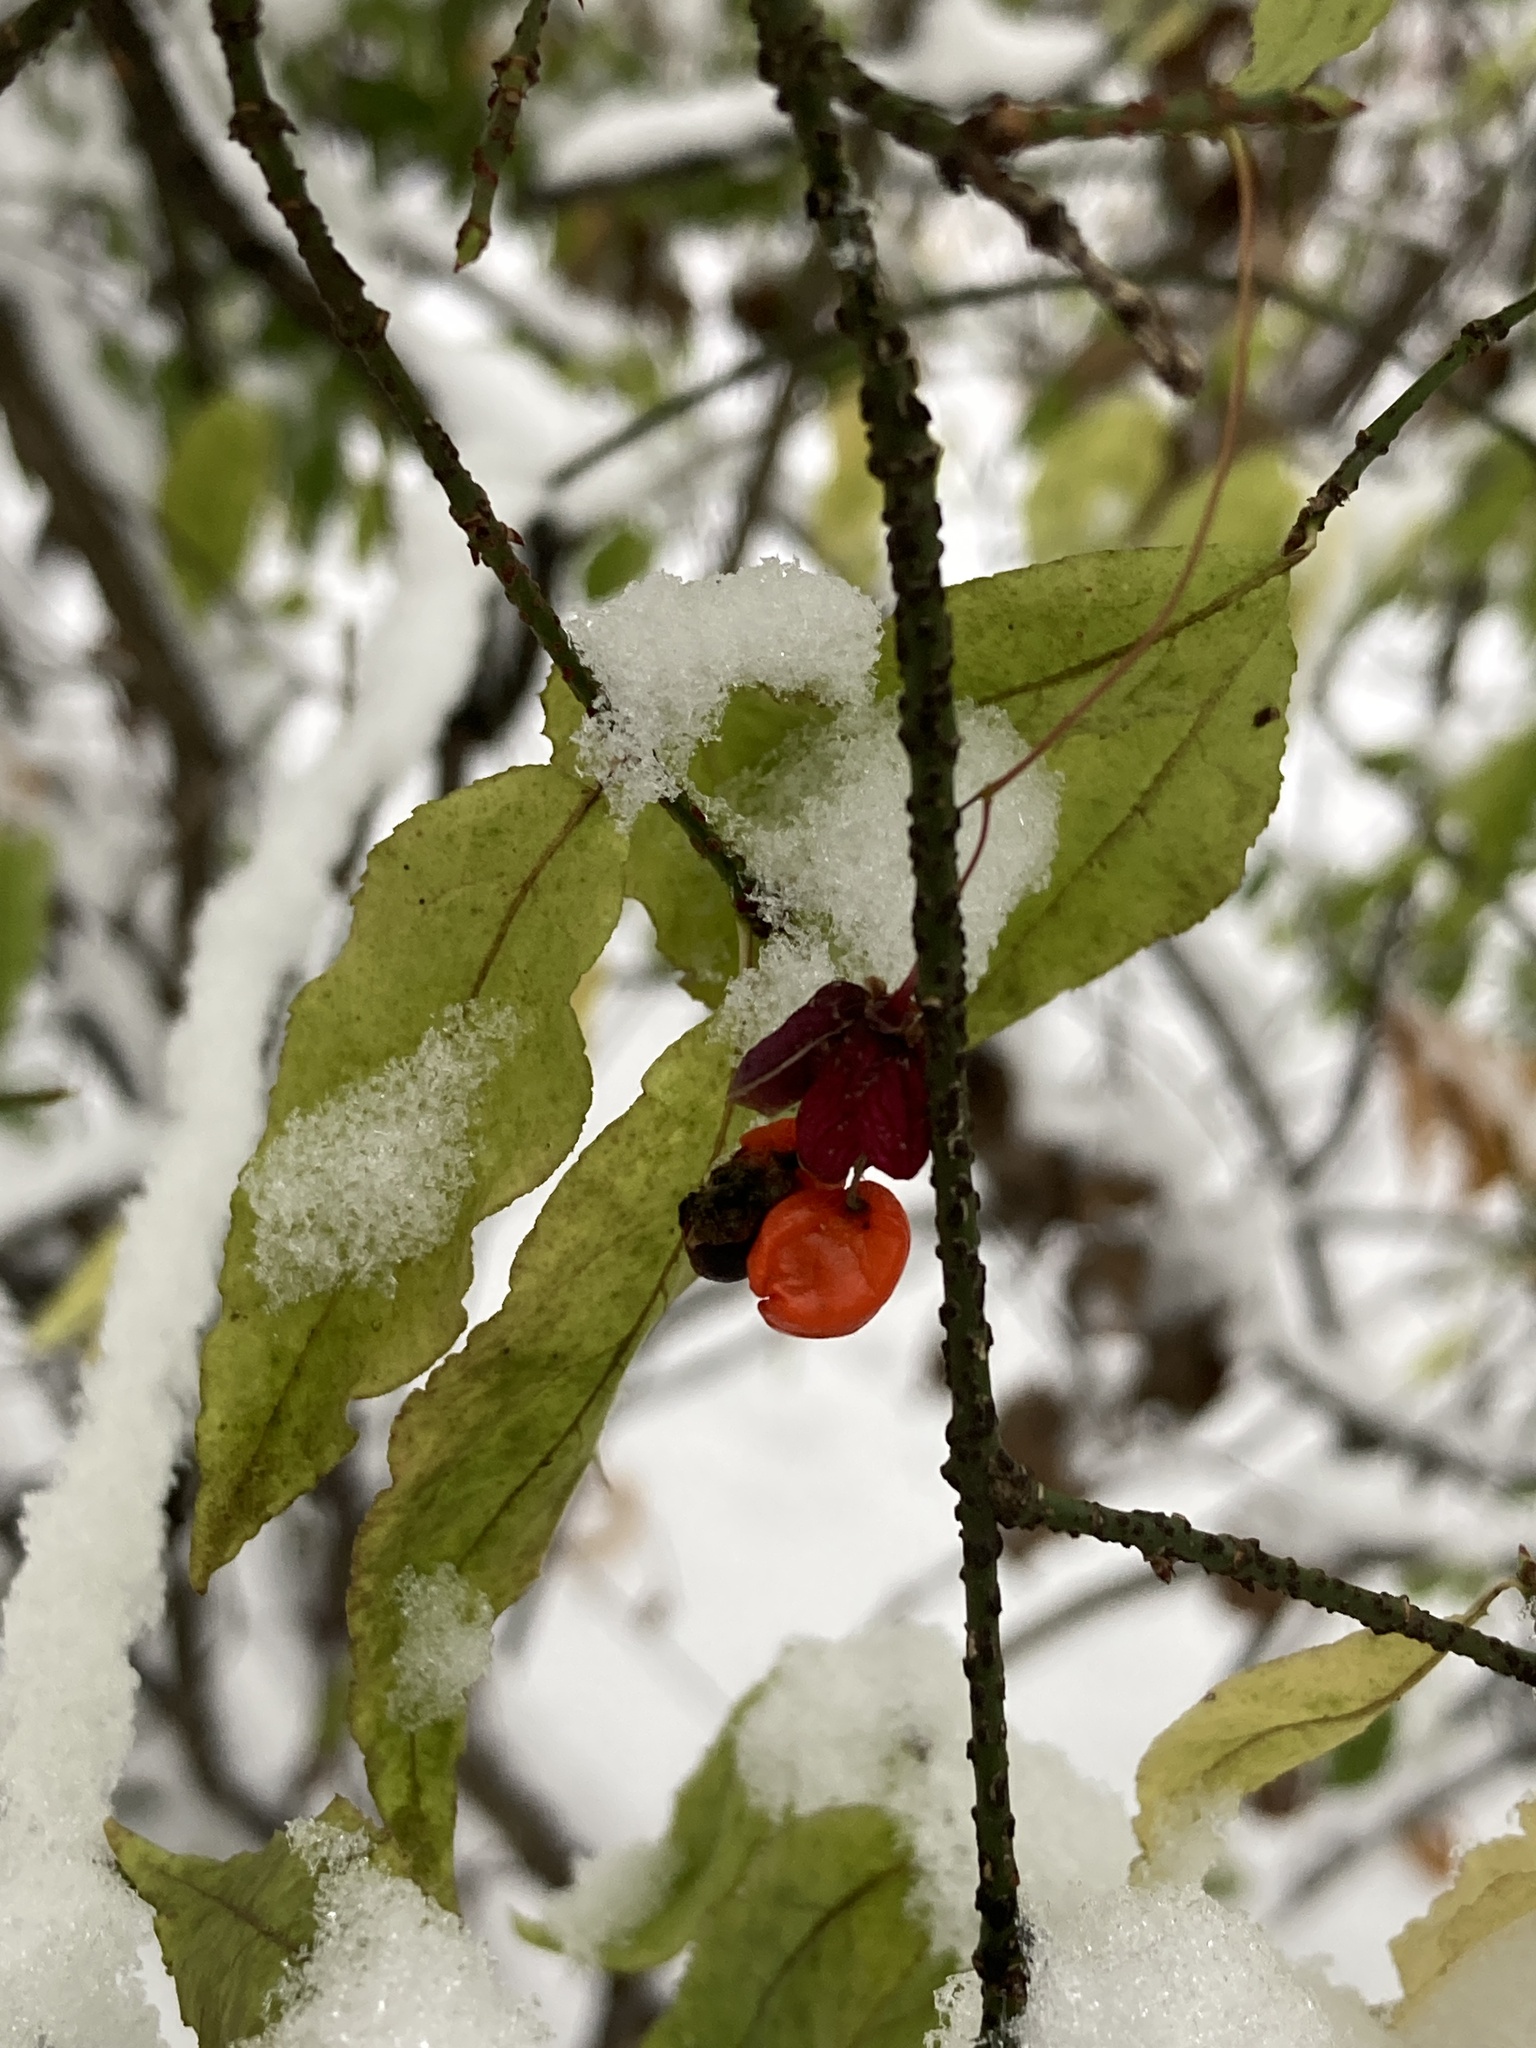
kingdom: Plantae
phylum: Tracheophyta
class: Magnoliopsida
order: Celastrales
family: Celastraceae
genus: Euonymus
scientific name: Euonymus verrucosus
